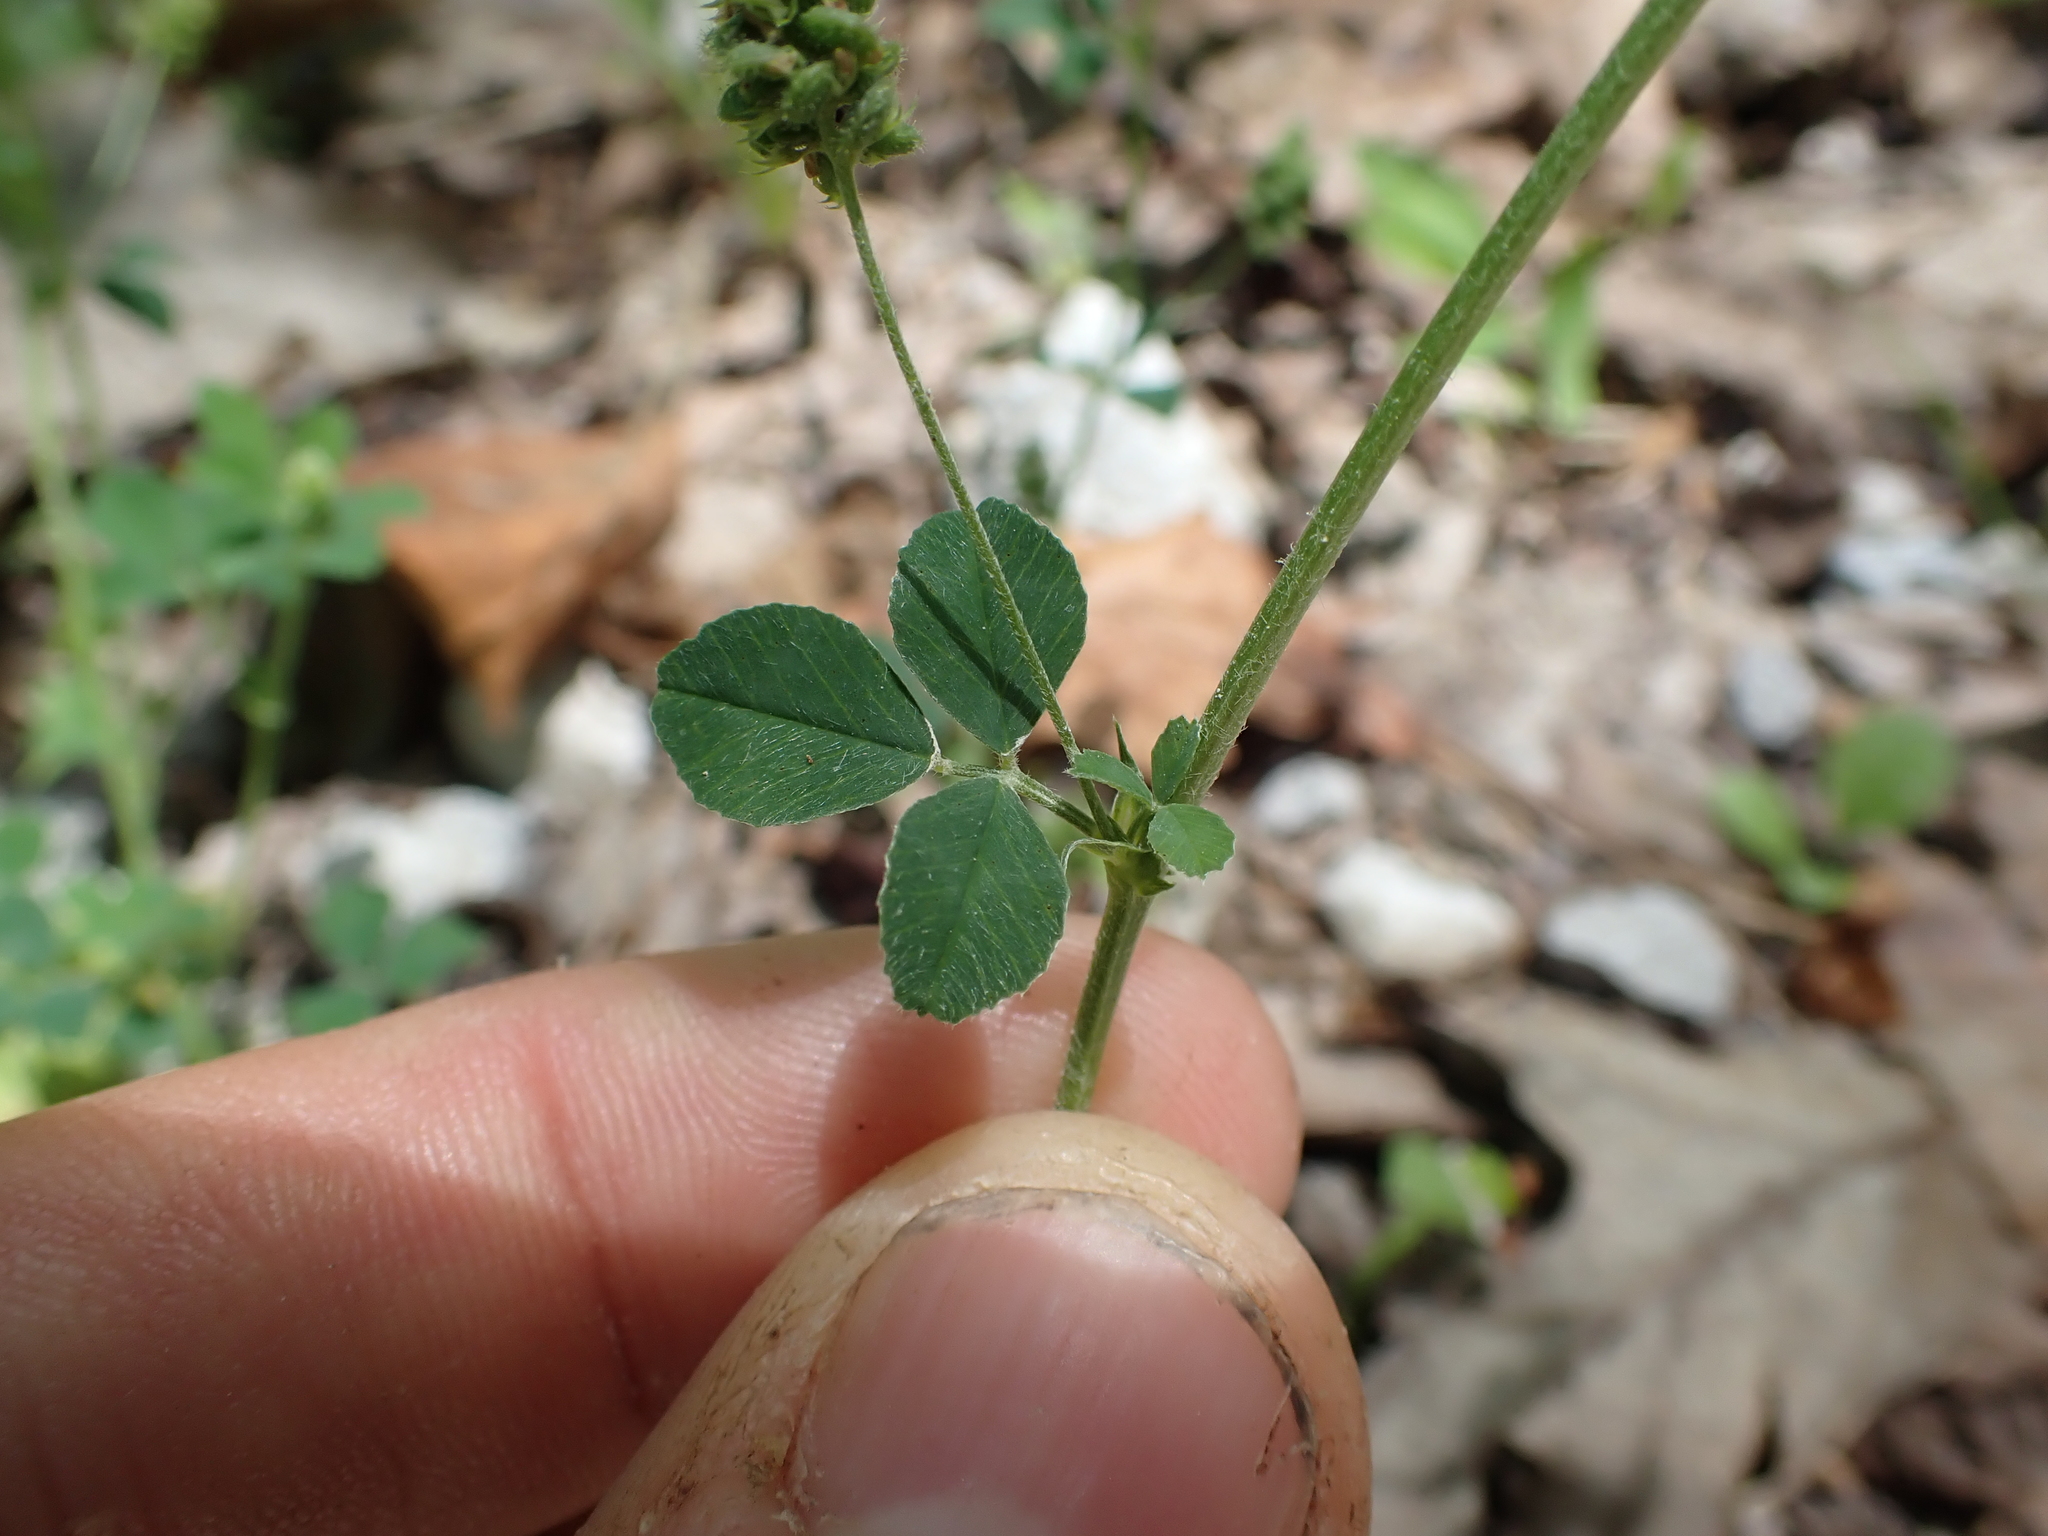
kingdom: Plantae
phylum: Tracheophyta
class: Magnoliopsida
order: Fabales
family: Fabaceae
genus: Medicago
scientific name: Medicago lupulina
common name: Black medick
